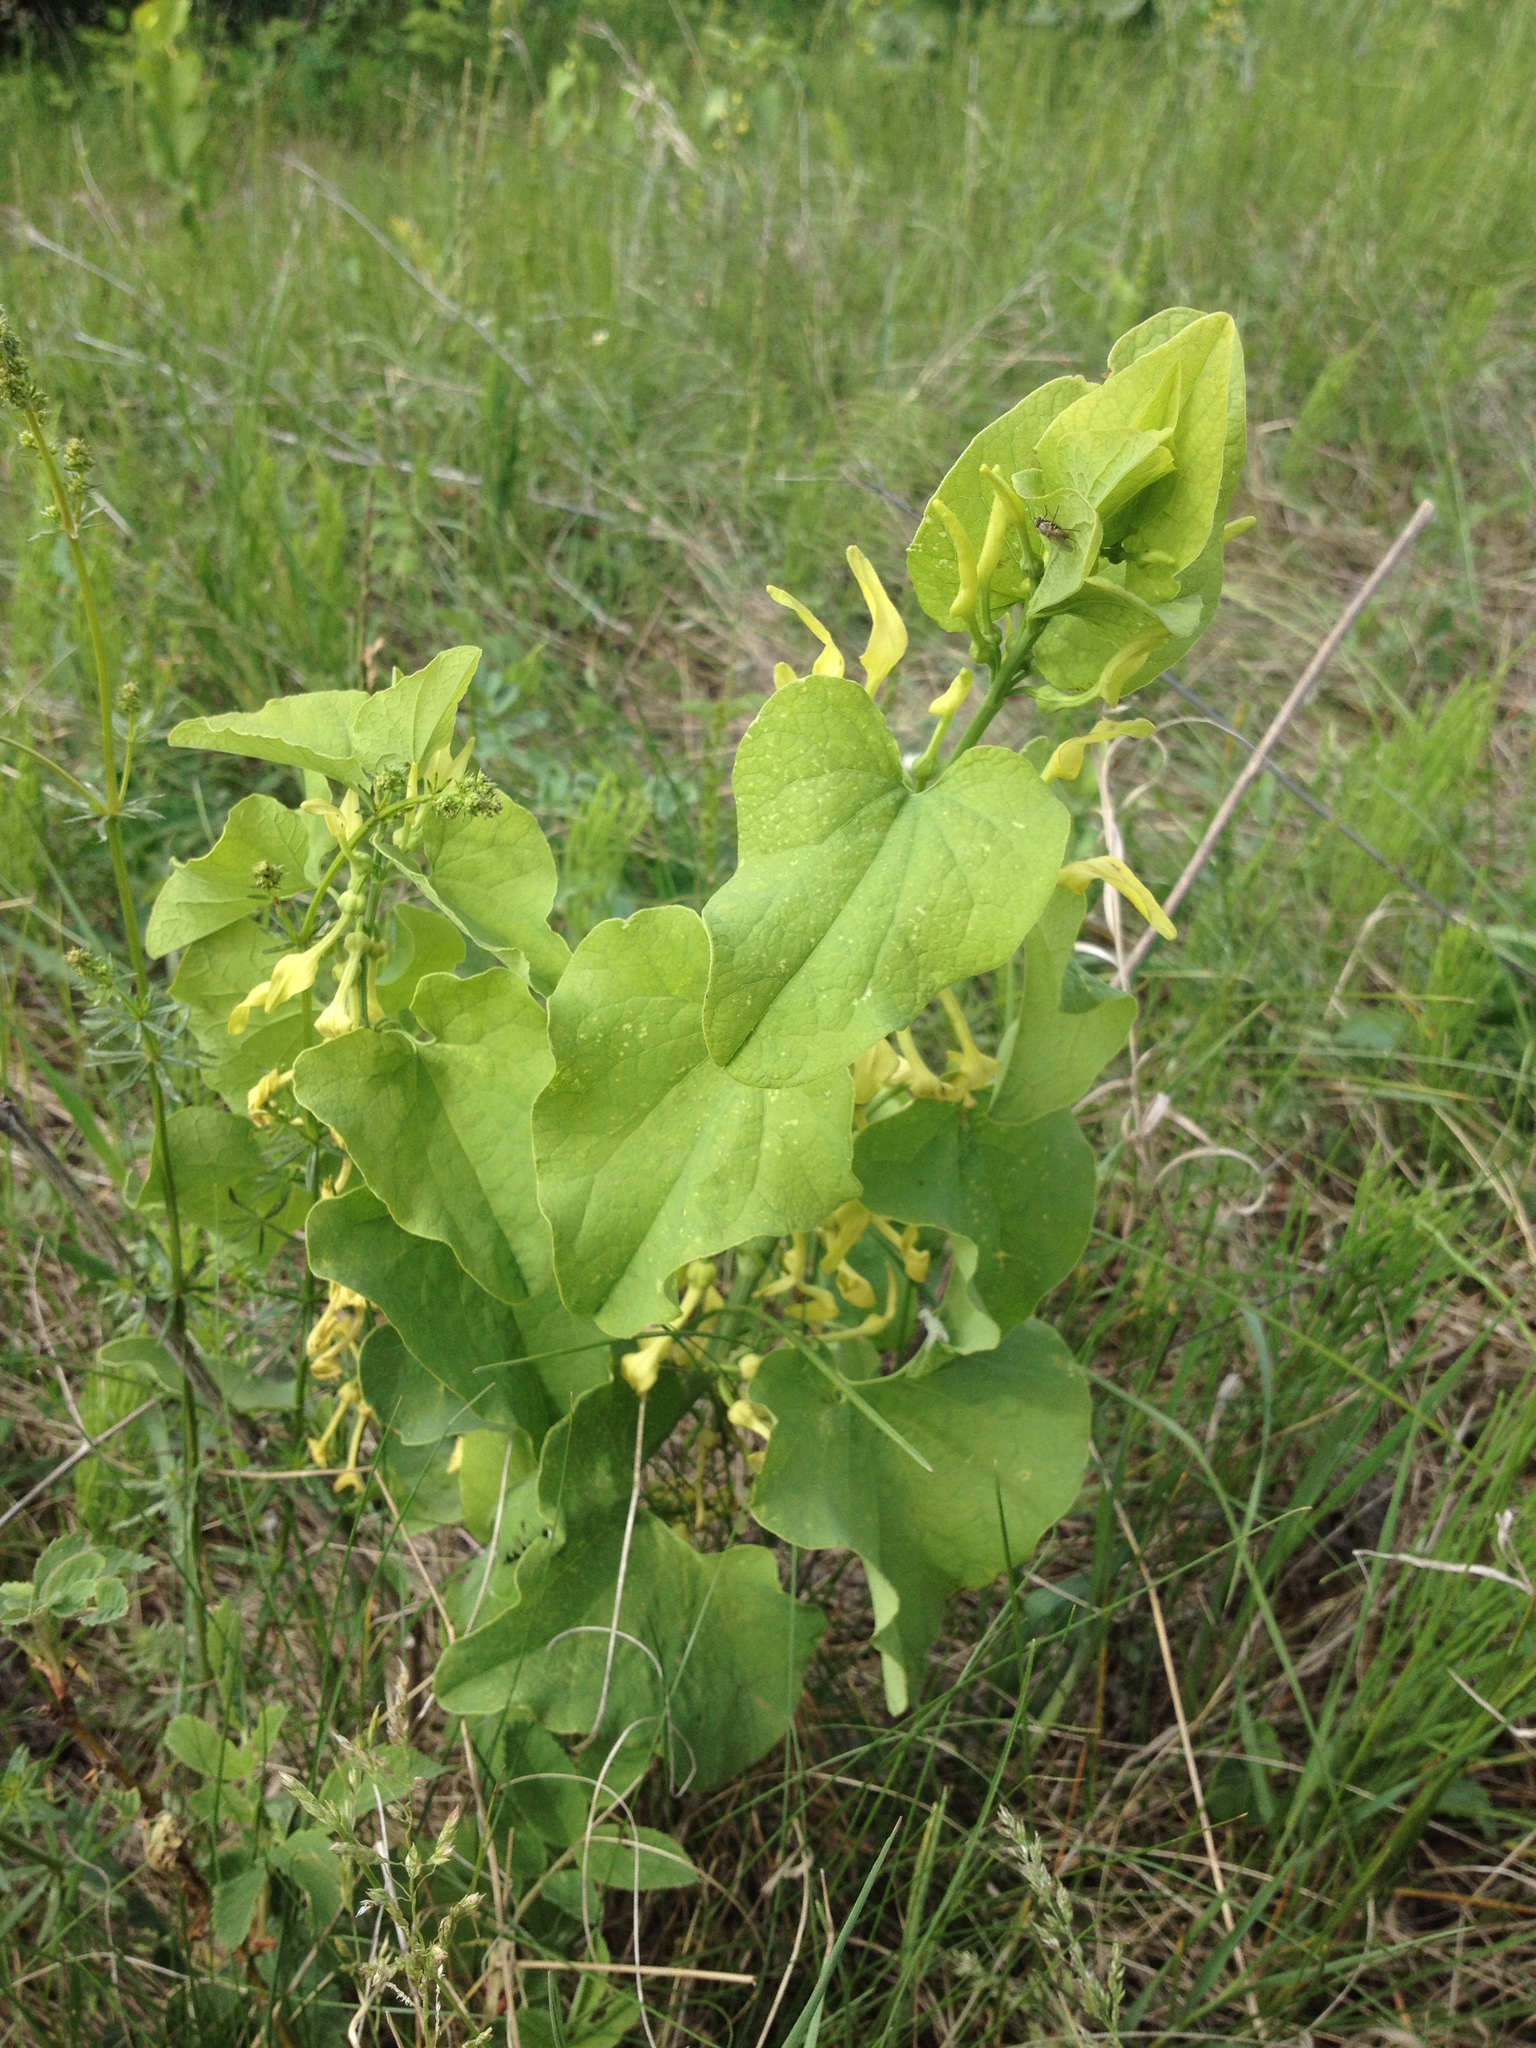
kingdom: Plantae
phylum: Tracheophyta
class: Magnoliopsida
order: Piperales
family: Aristolochiaceae
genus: Aristolochia
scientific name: Aristolochia clematitis
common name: Birthwort
